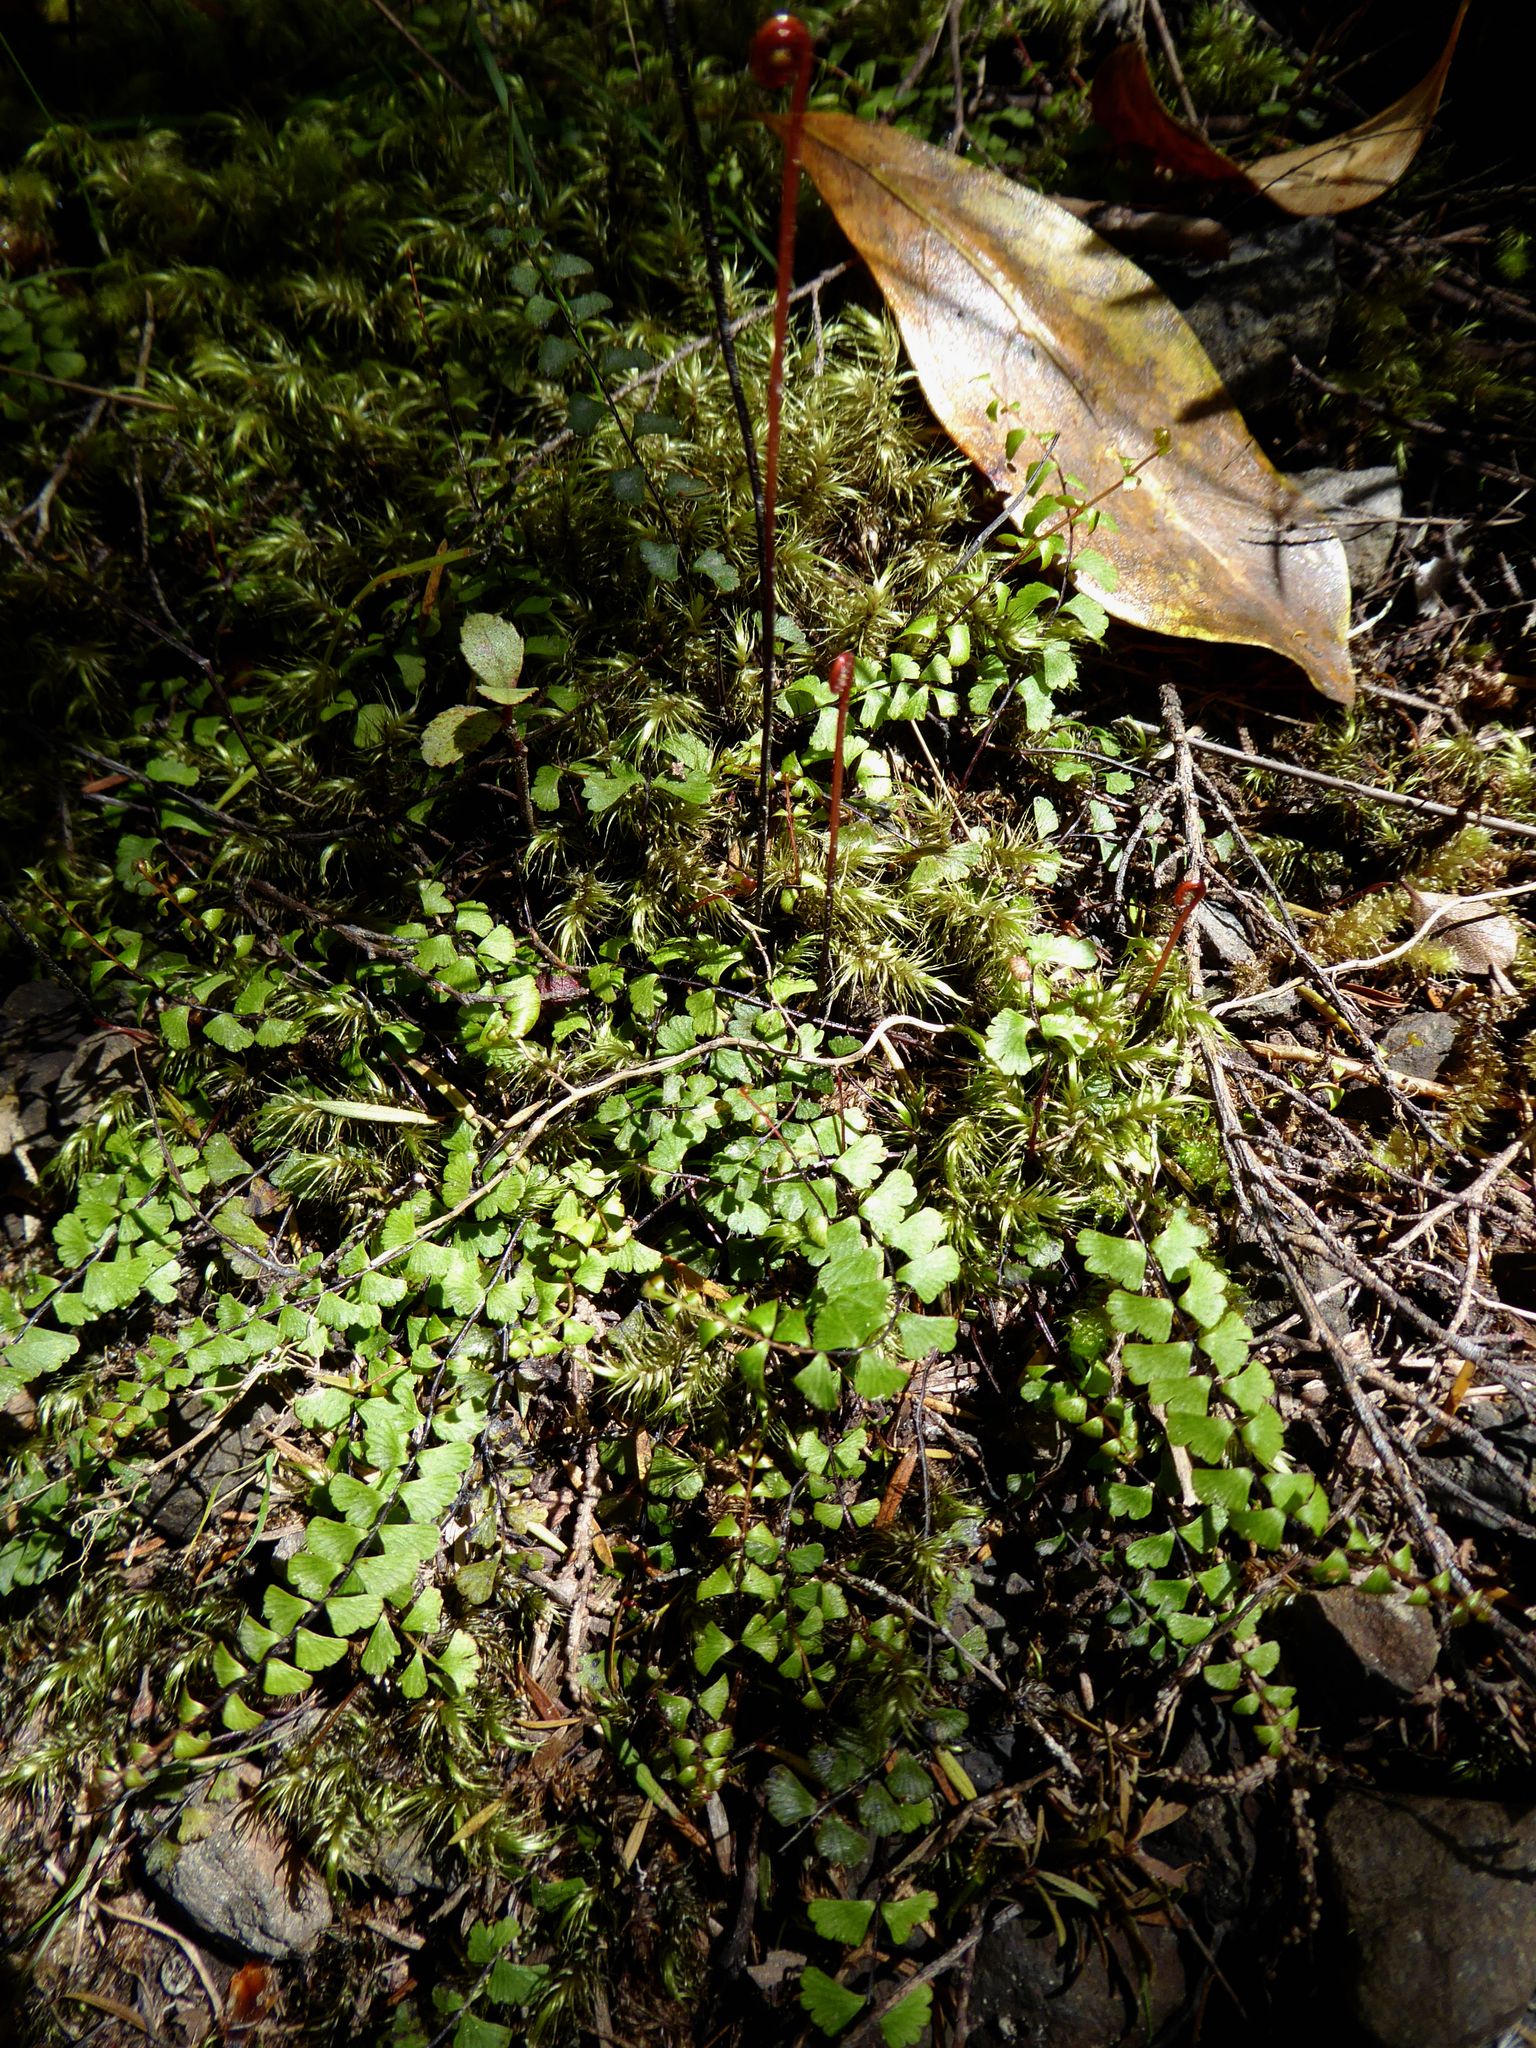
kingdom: Plantae
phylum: Tracheophyta
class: Polypodiopsida
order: Polypodiales
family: Lindsaeaceae
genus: Lindsaea
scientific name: Lindsaea linearis
